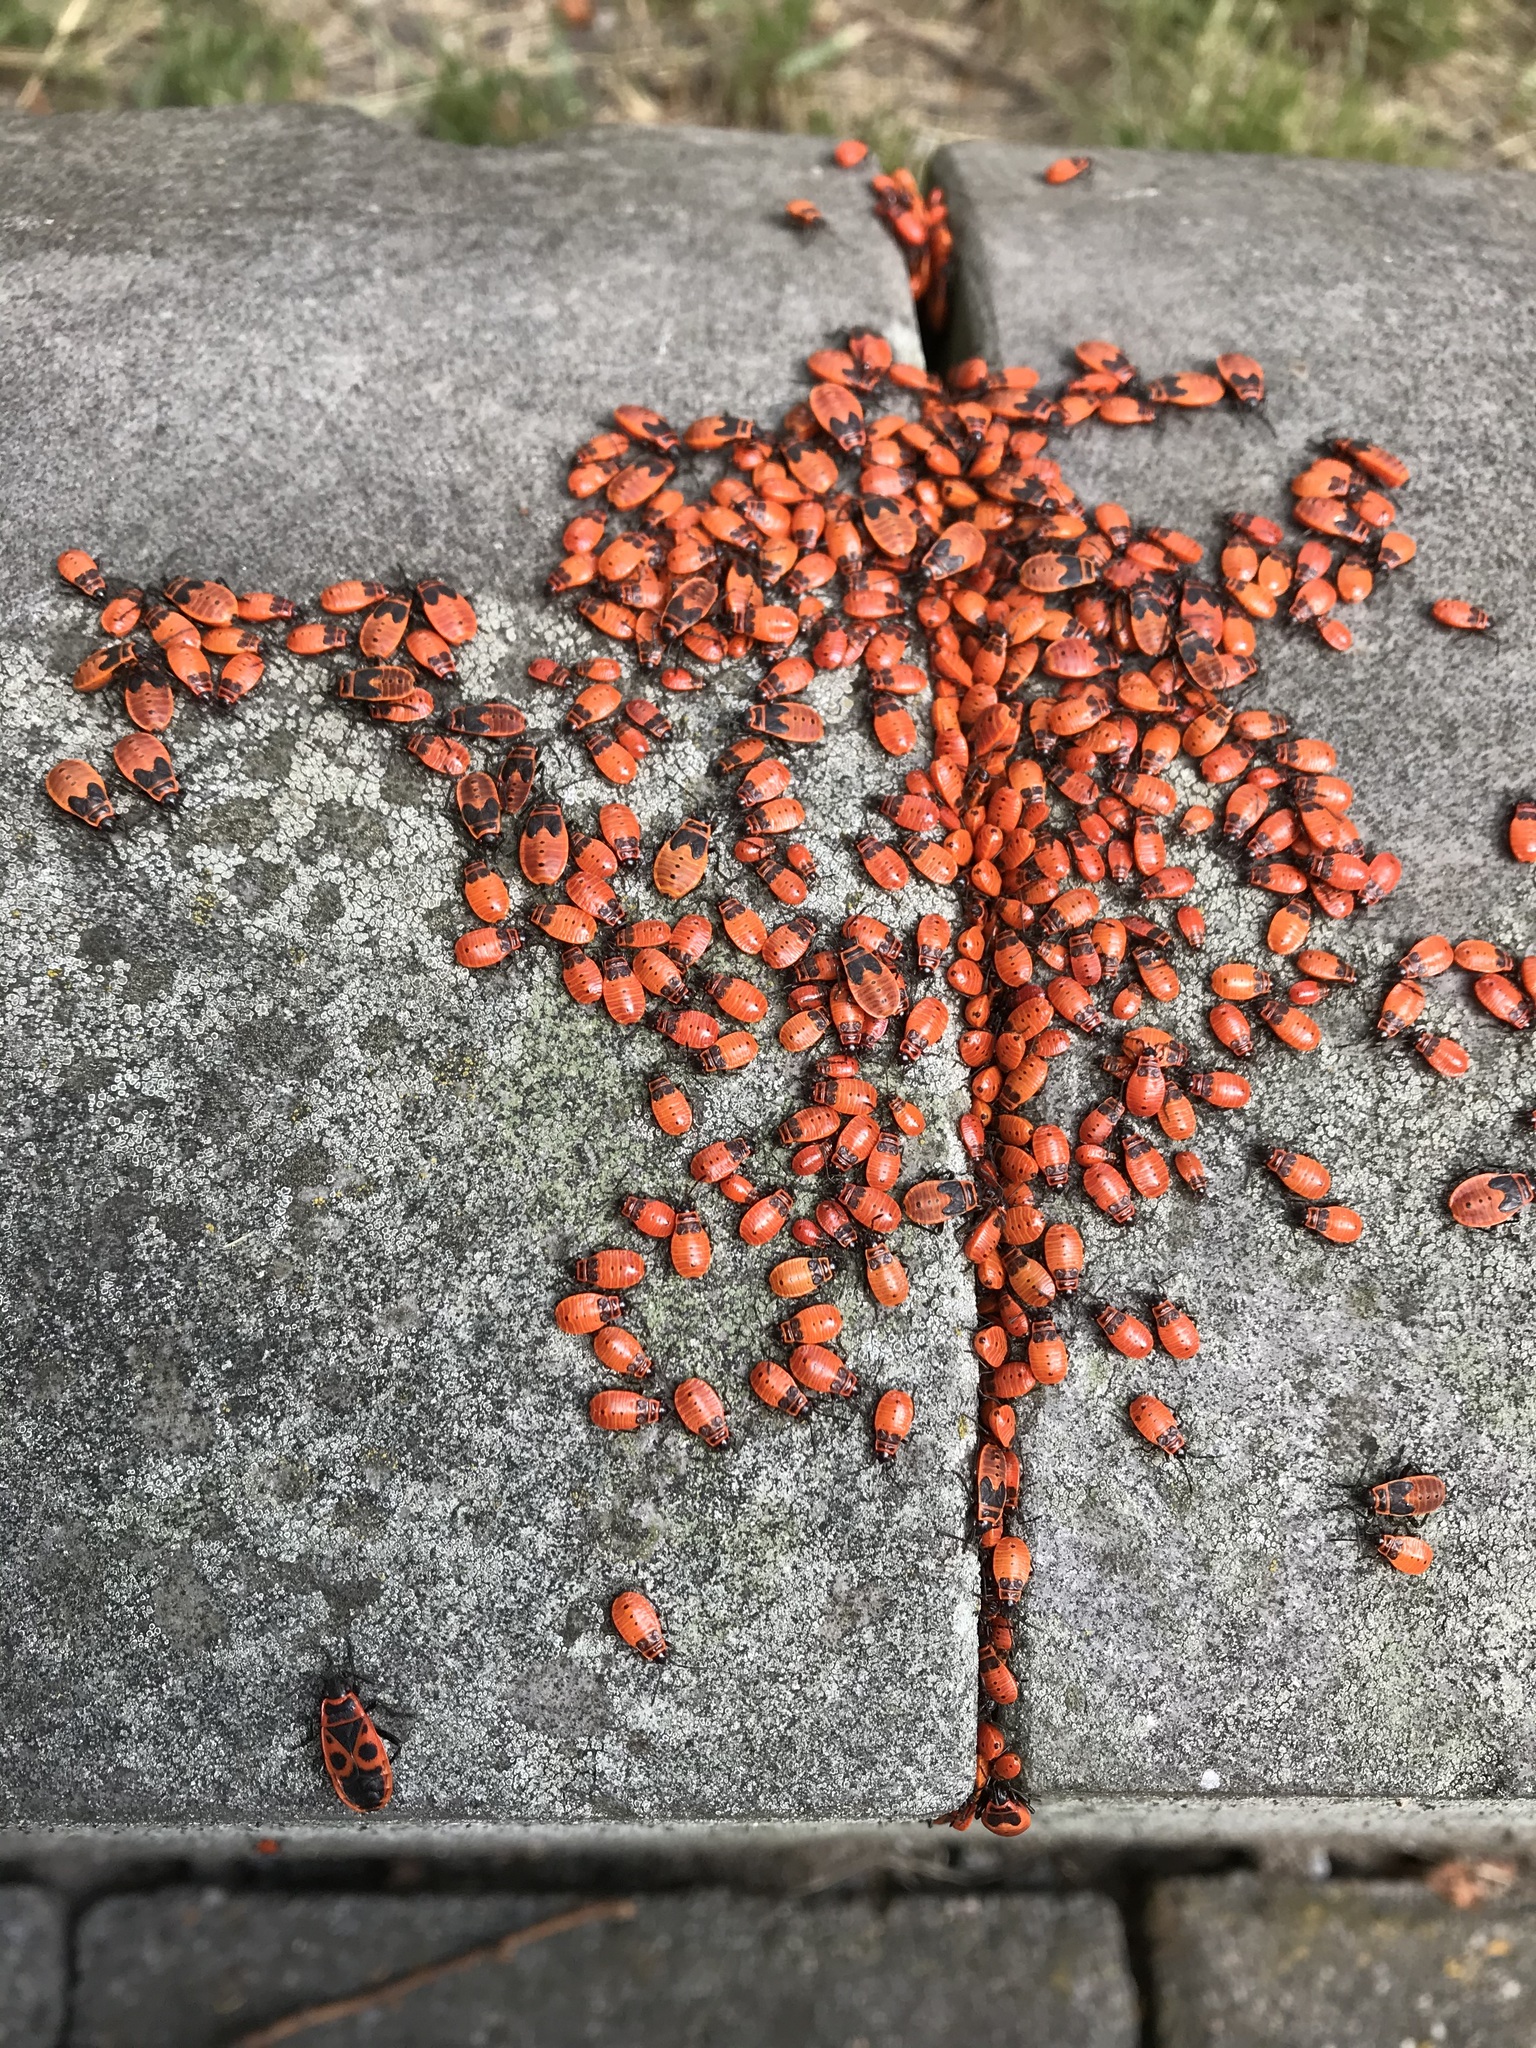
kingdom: Animalia
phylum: Arthropoda
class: Insecta
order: Hemiptera
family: Pyrrhocoridae
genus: Pyrrhocoris
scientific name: Pyrrhocoris apterus
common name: Firebug
